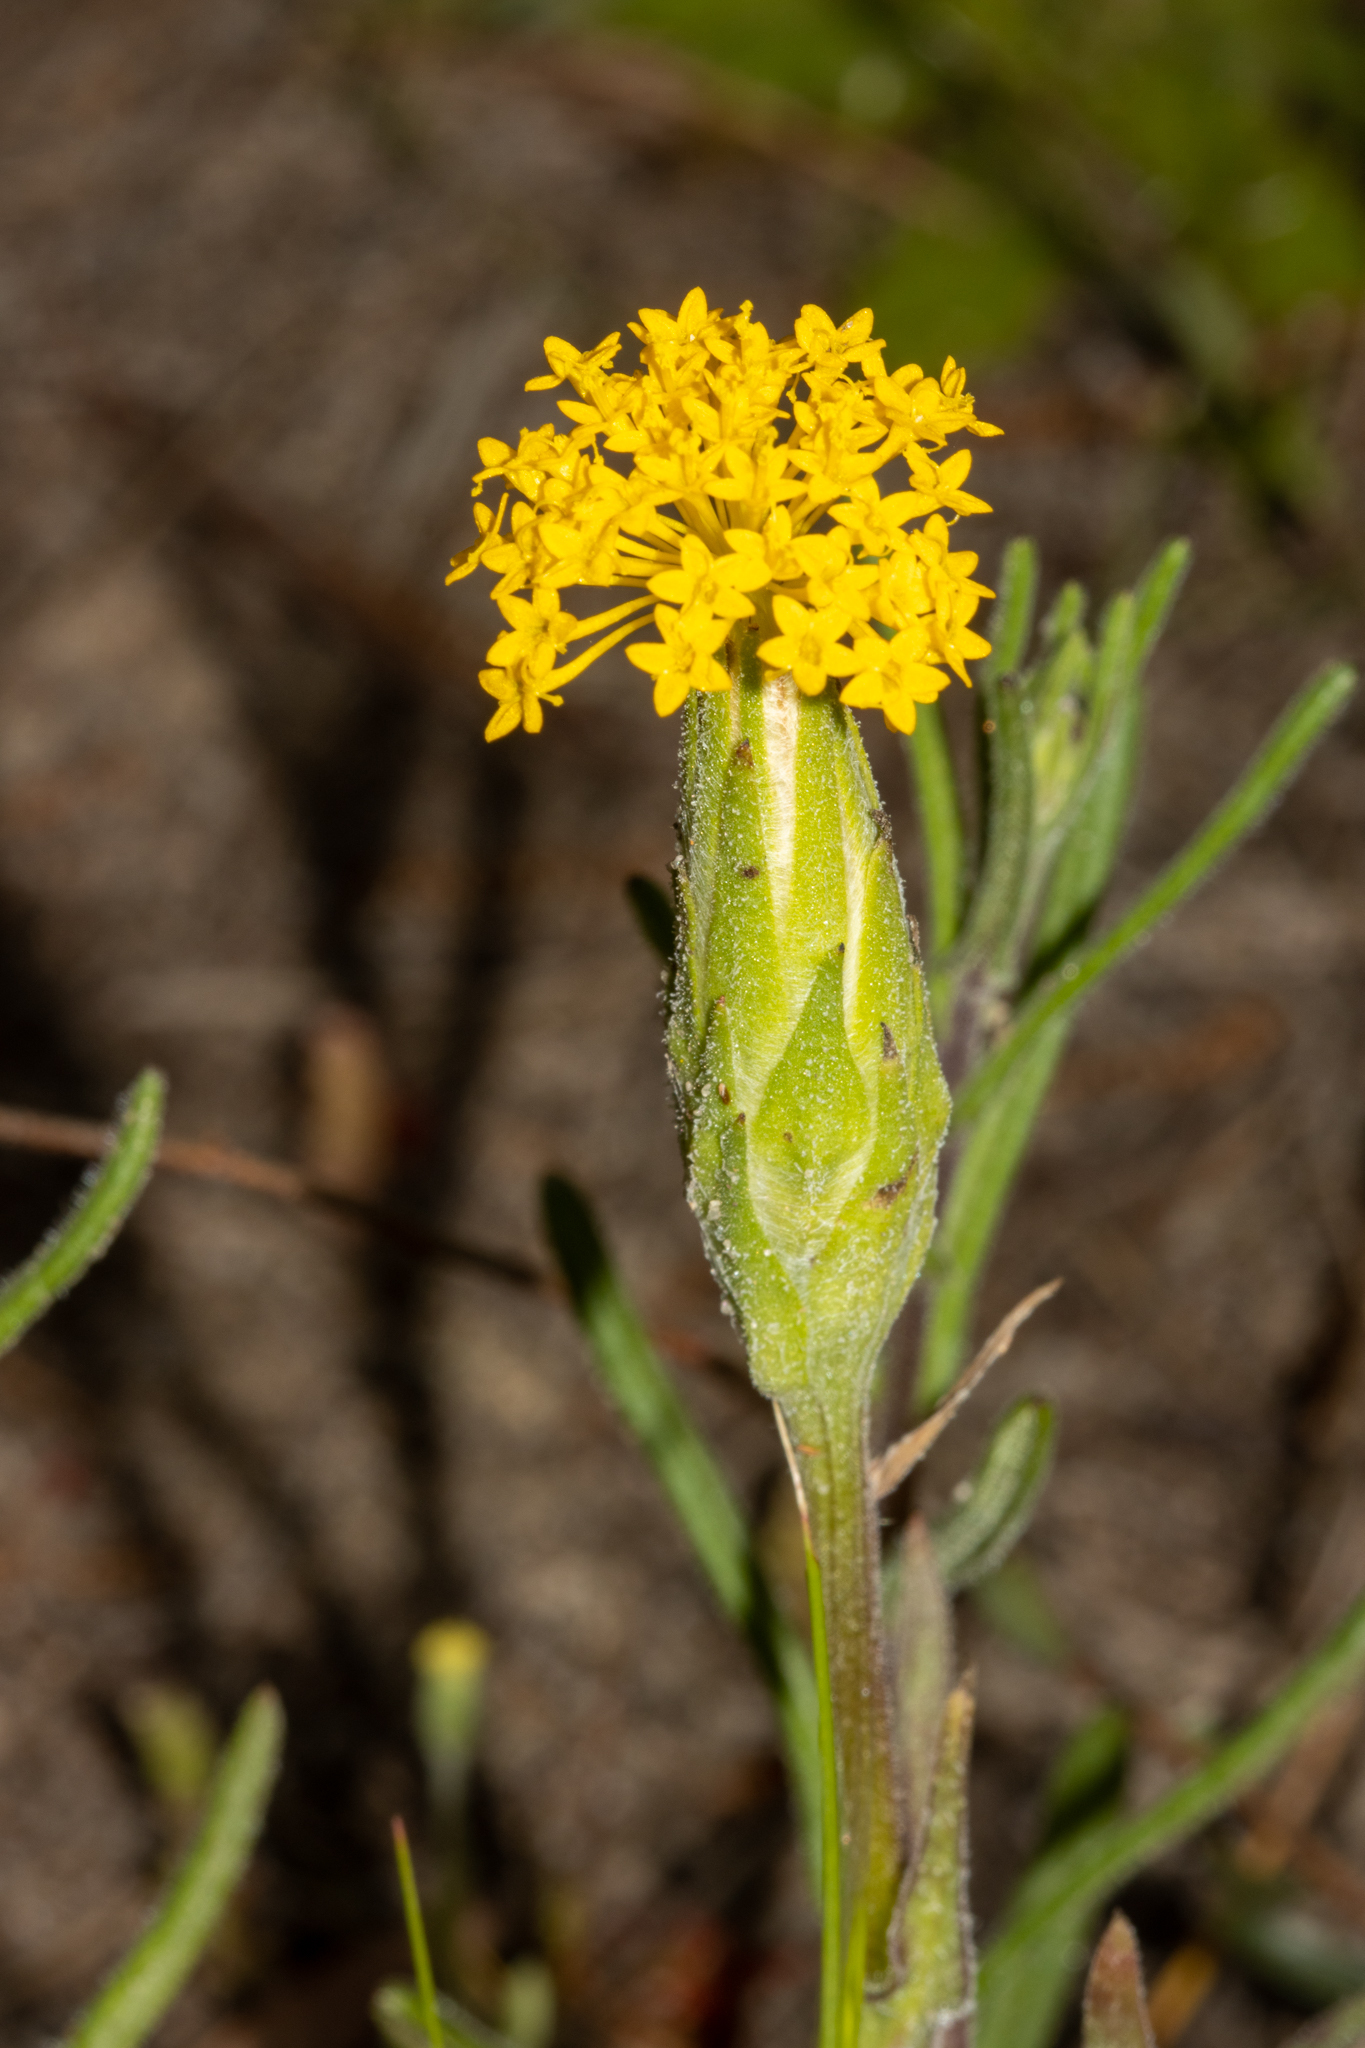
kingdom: Plantae
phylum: Tracheophyta
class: Magnoliopsida
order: Asterales
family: Asteraceae
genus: Podotheca
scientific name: Podotheca gnaphalioides
